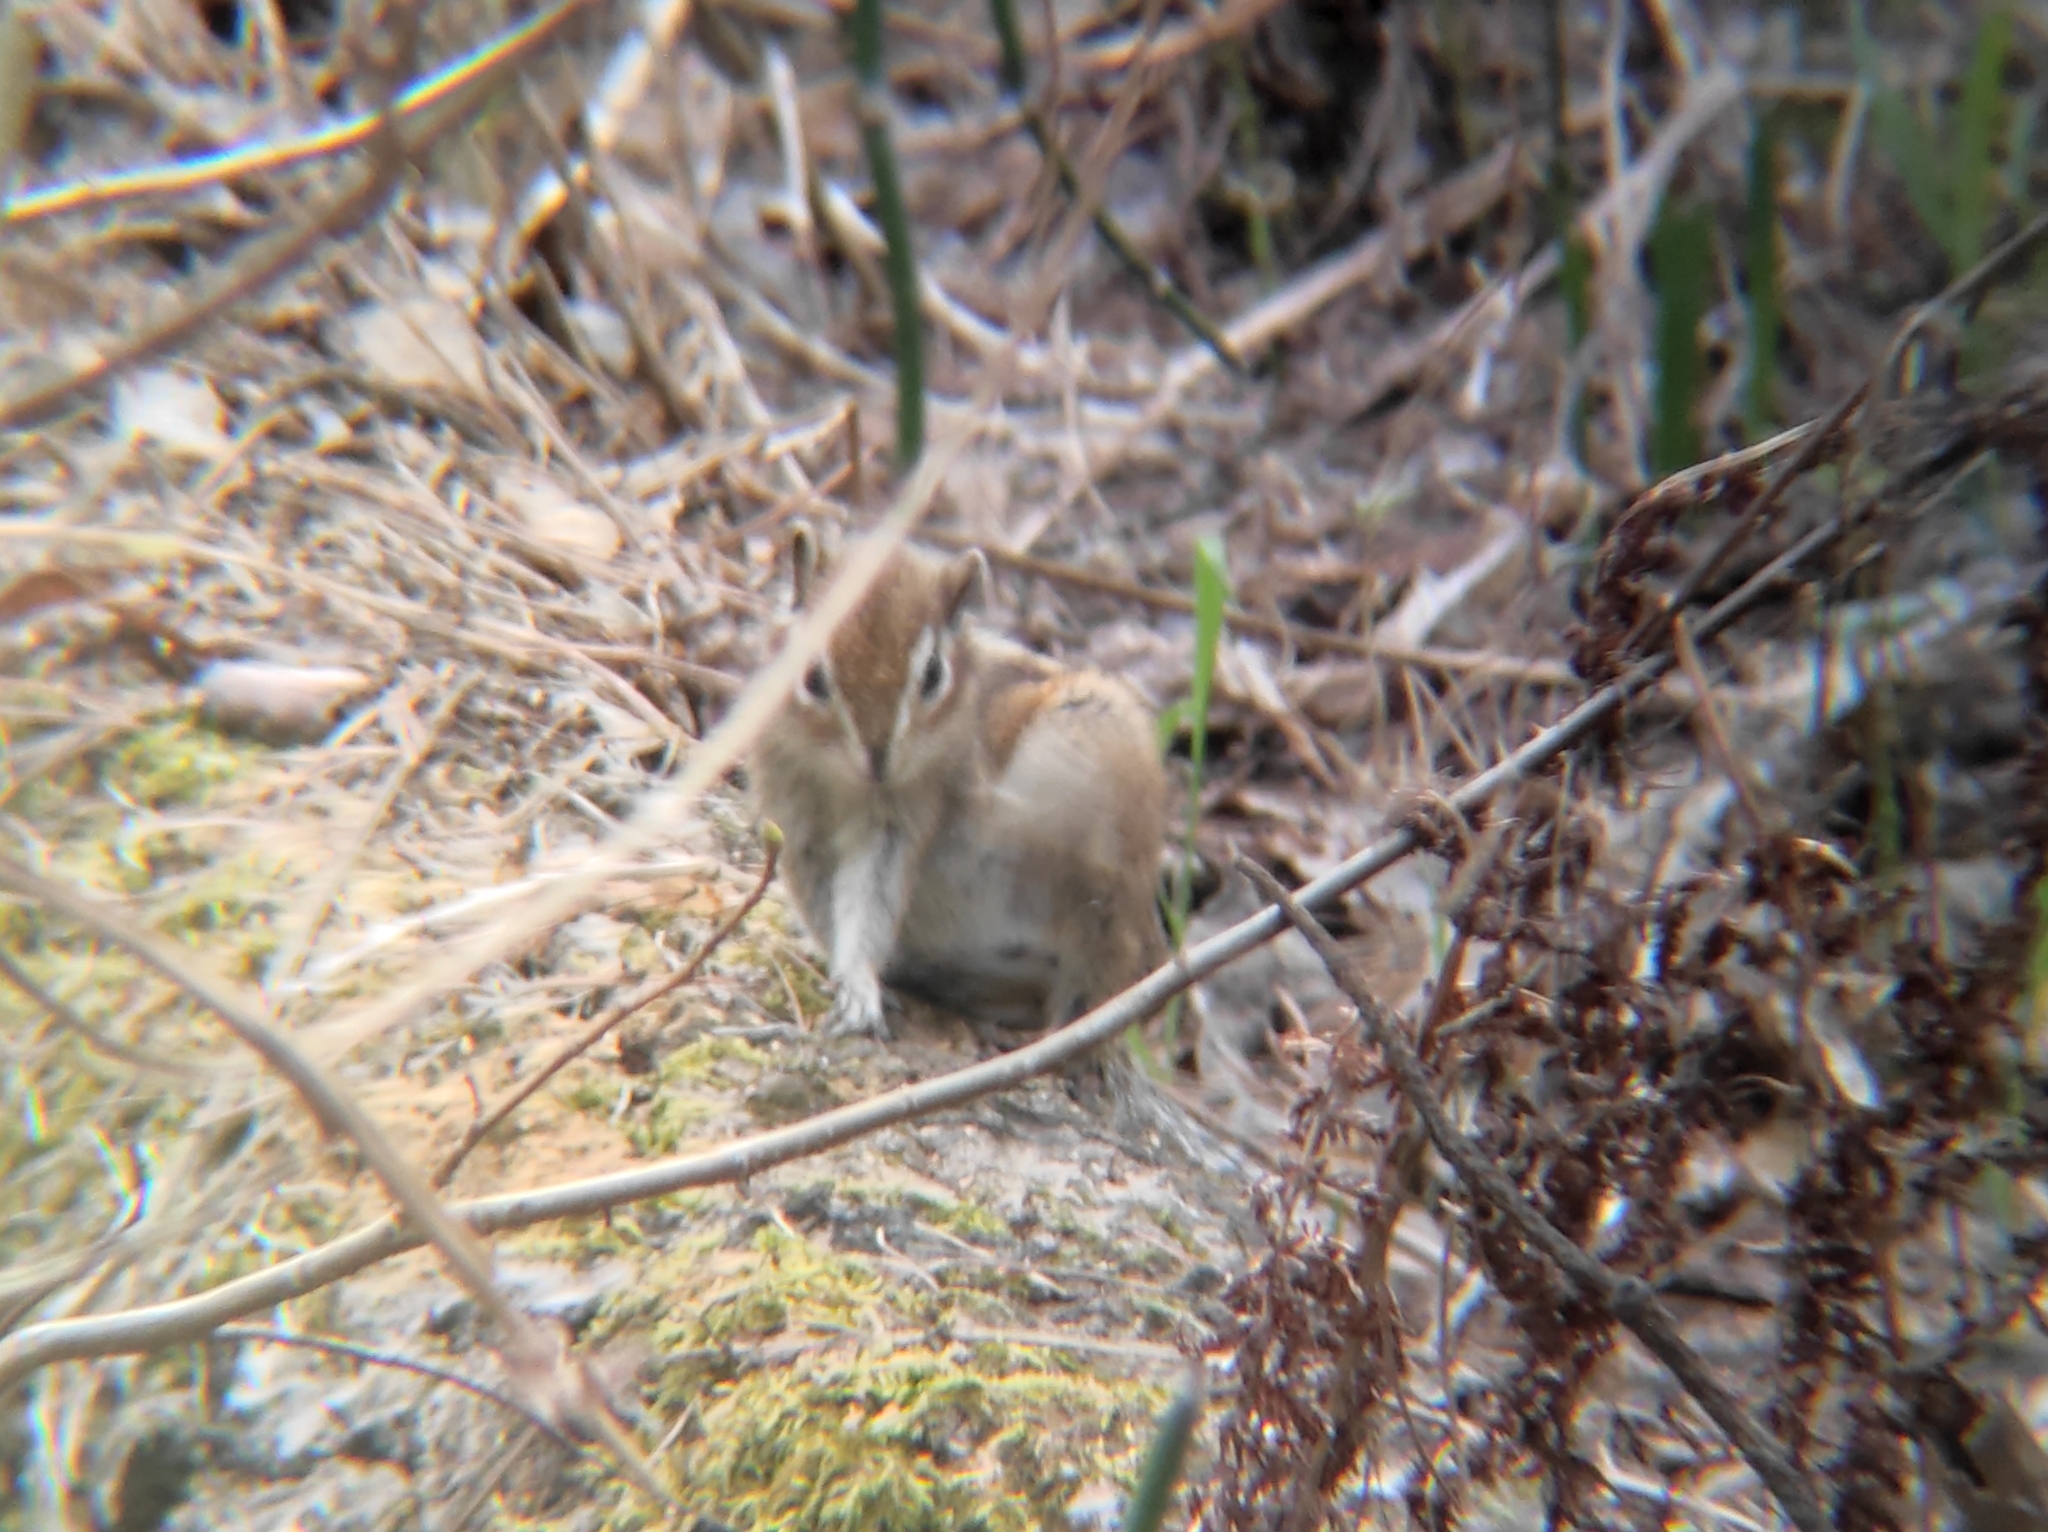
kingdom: Animalia
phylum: Chordata
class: Mammalia
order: Rodentia
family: Sciuridae
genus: Tamias
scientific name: Tamias sibiricus
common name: Siberian chipmunk
